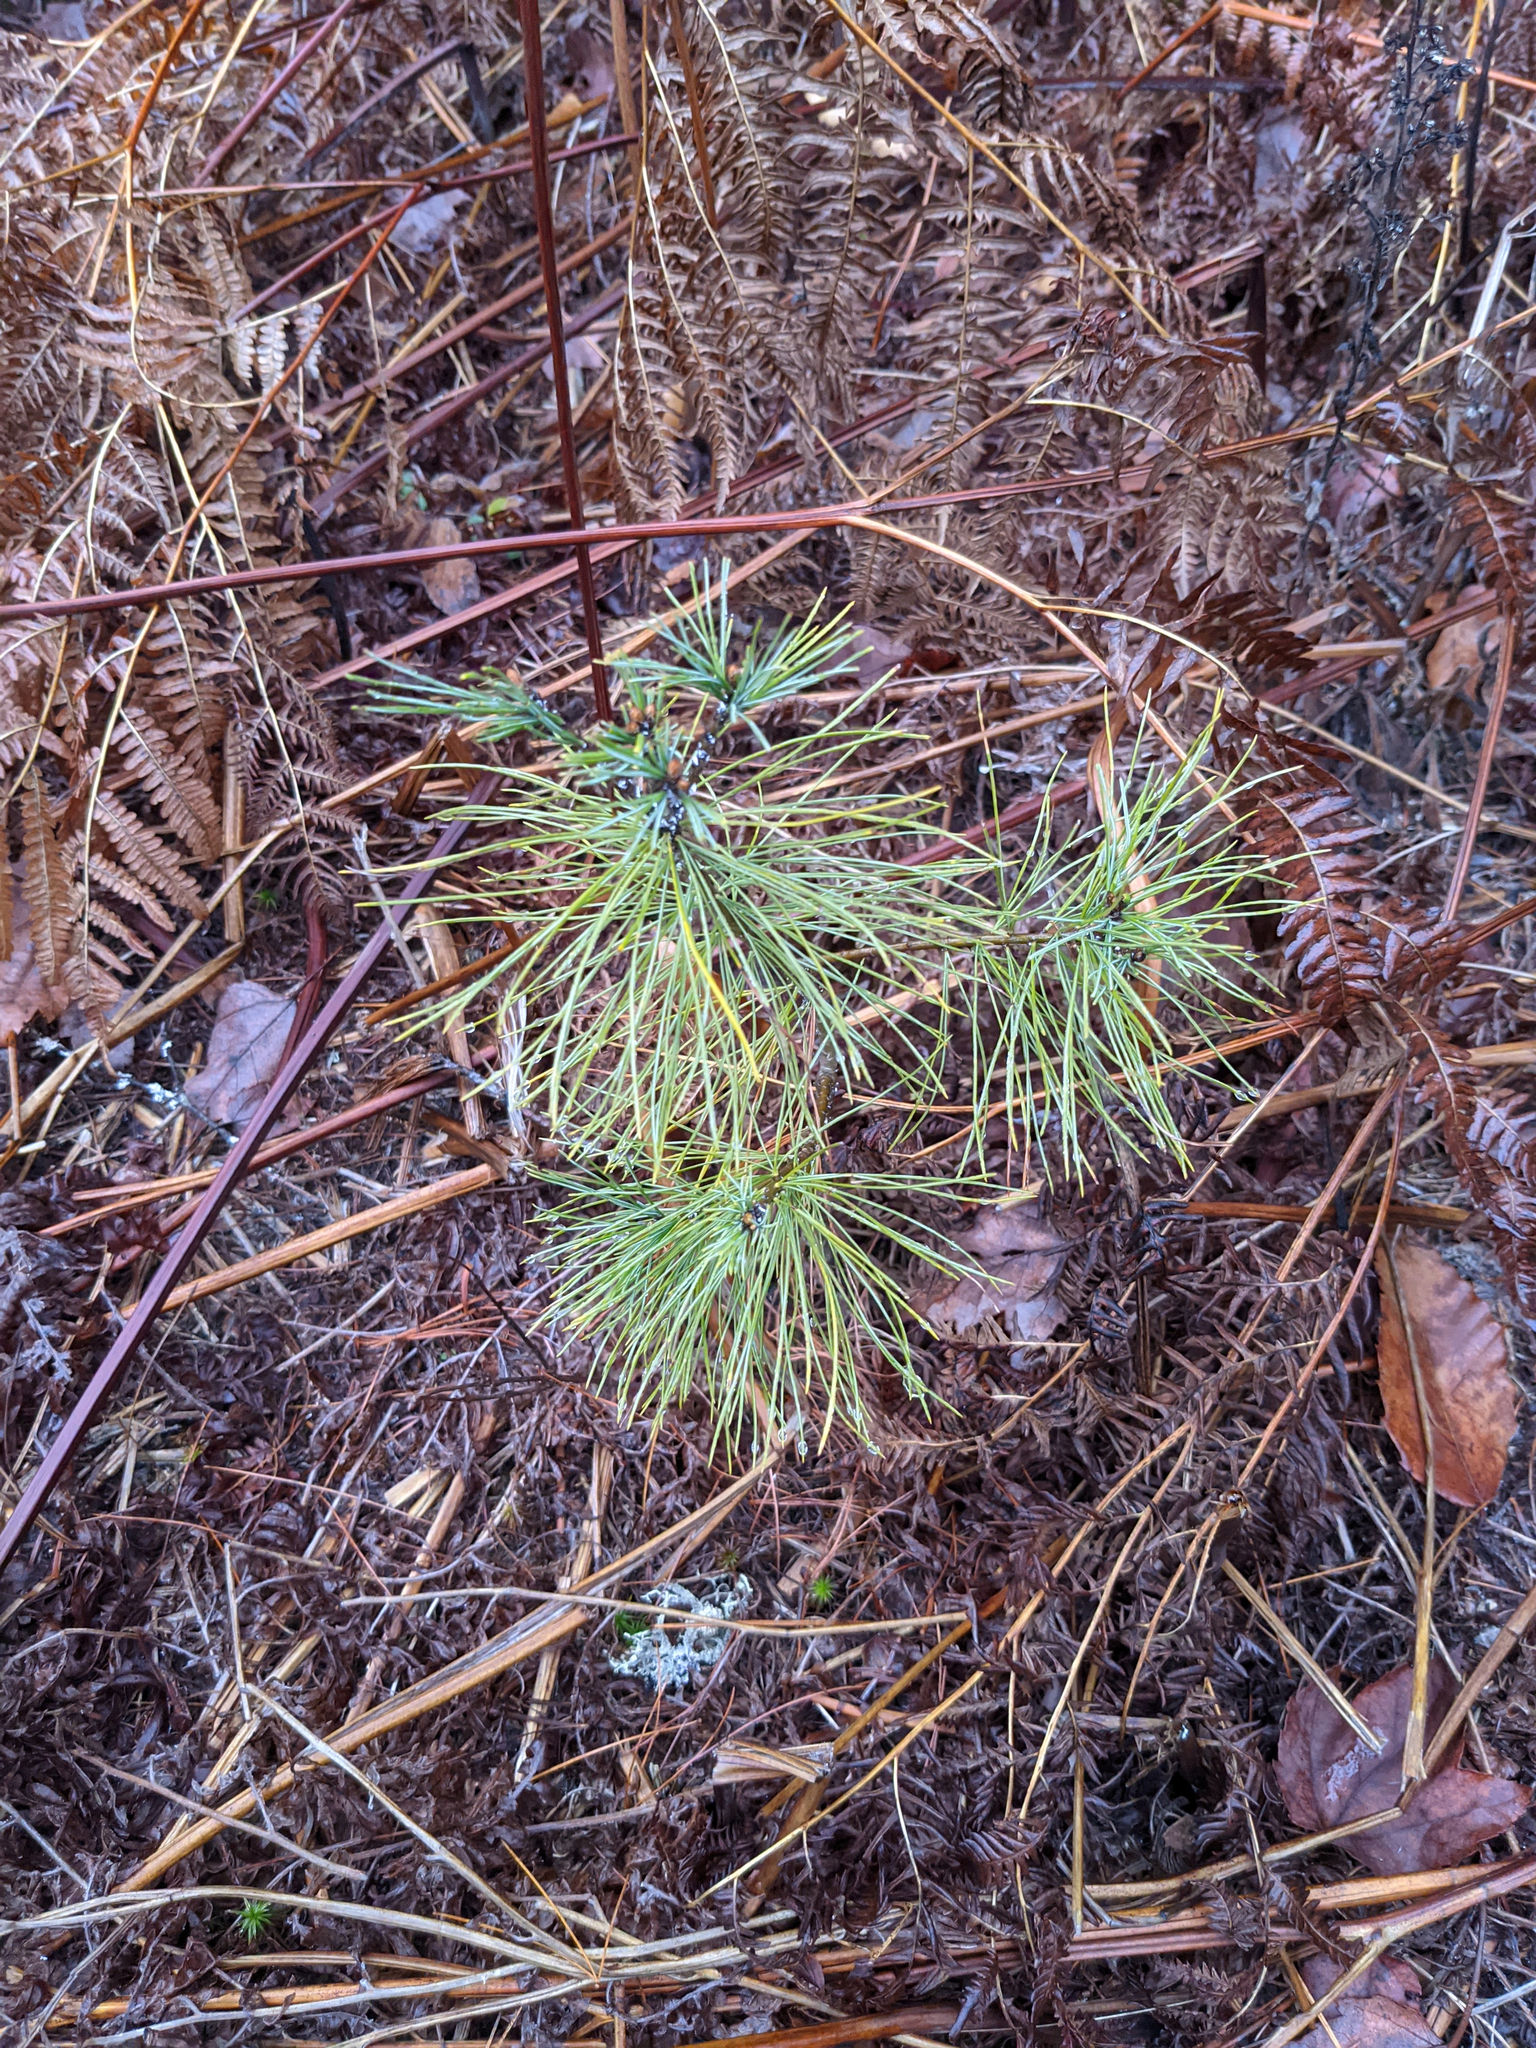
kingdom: Plantae
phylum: Tracheophyta
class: Pinopsida
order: Pinales
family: Pinaceae
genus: Pinus
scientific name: Pinus strobus
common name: Weymouth pine
